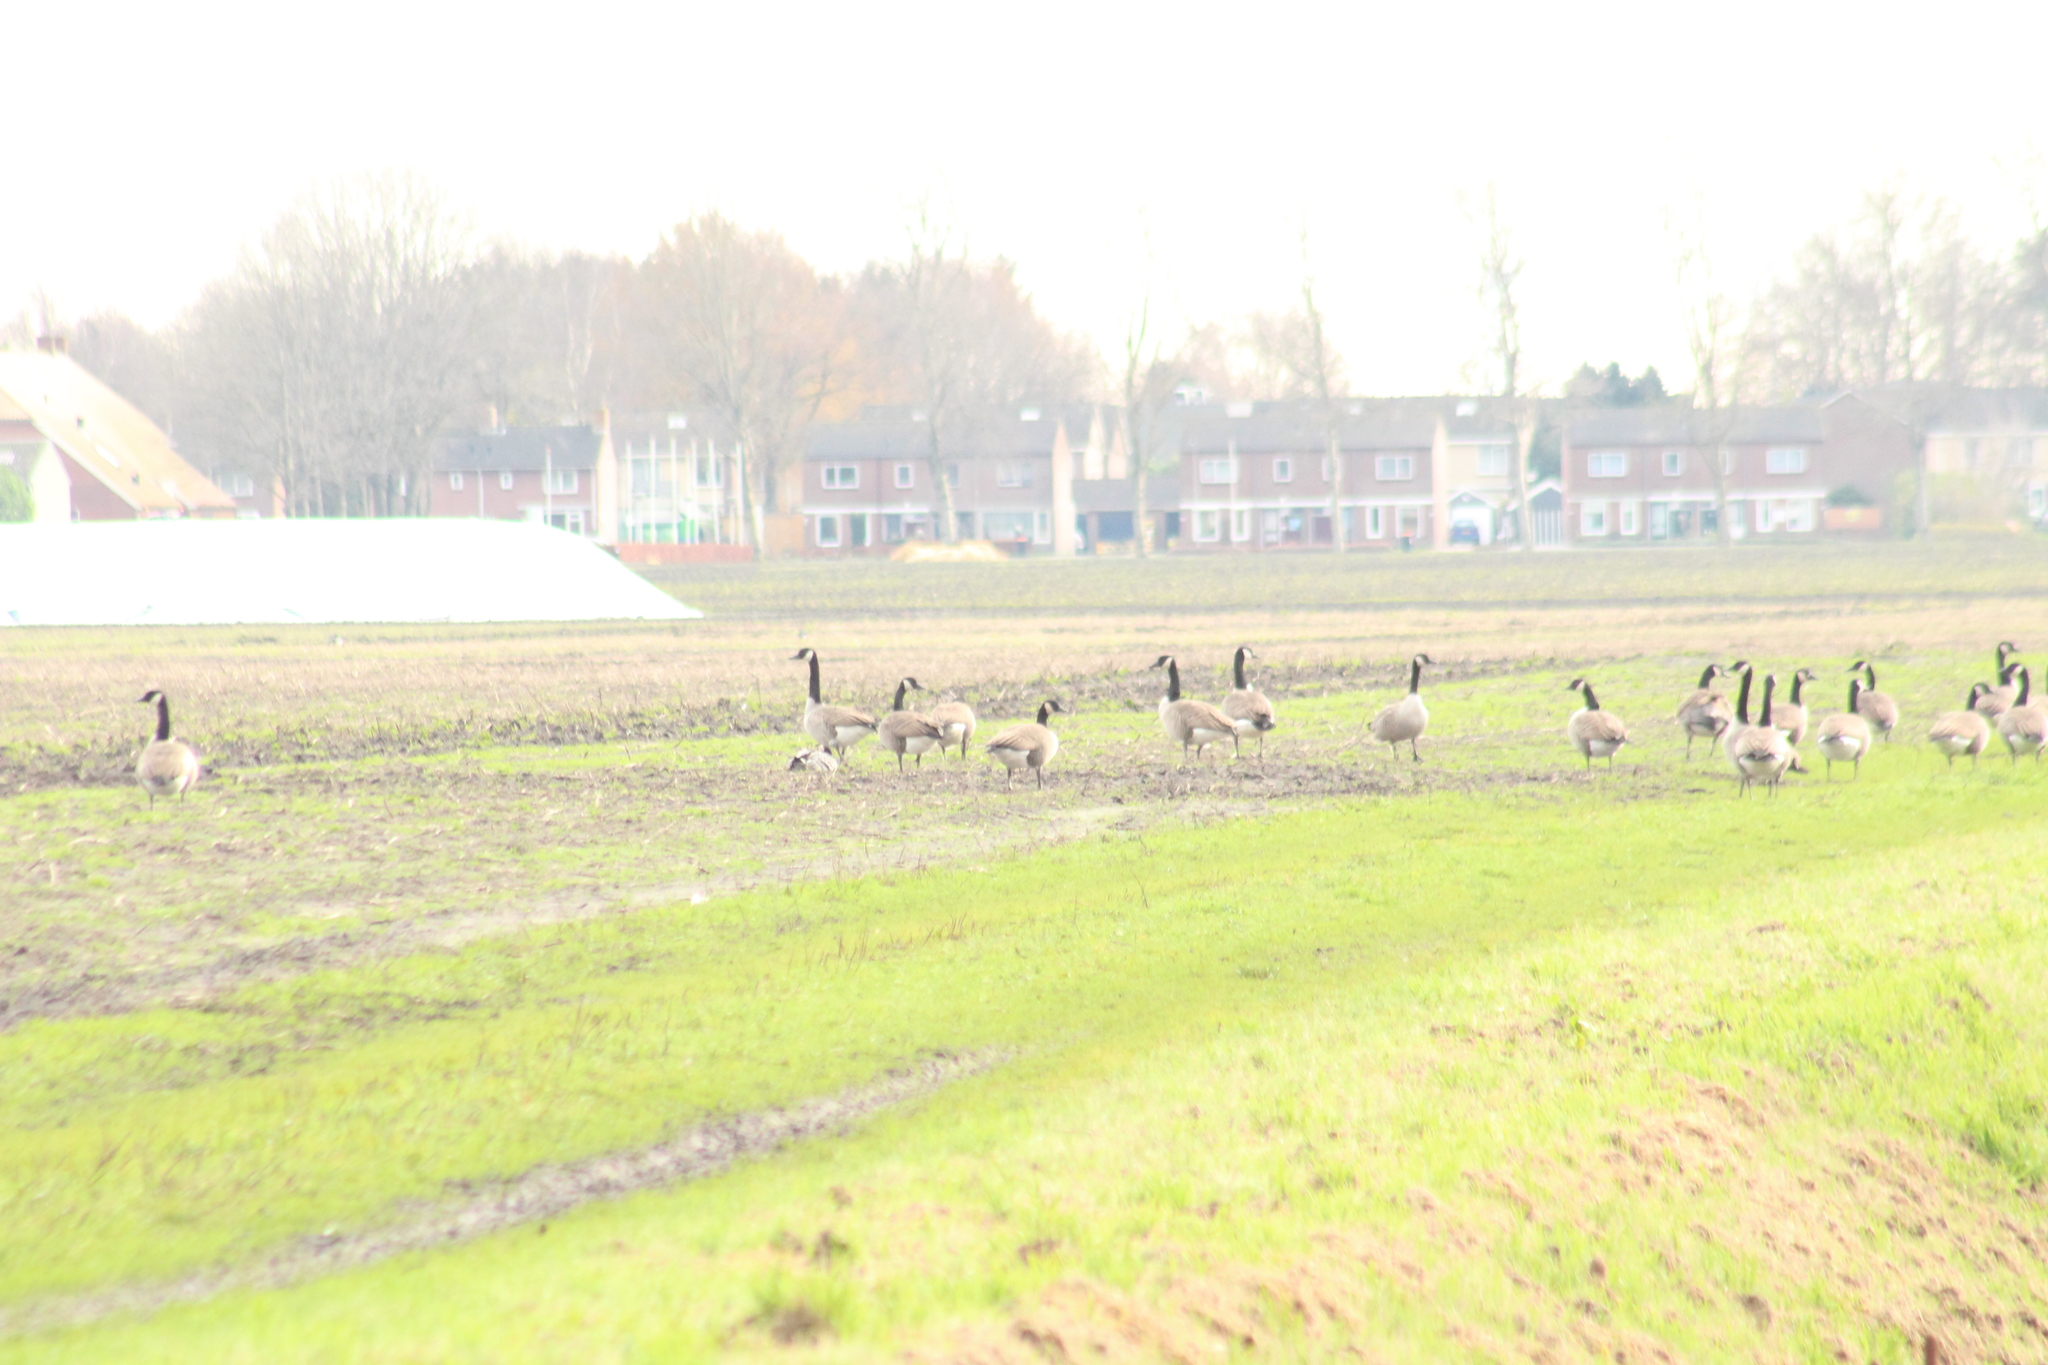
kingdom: Animalia
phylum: Chordata
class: Aves
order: Anseriformes
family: Anatidae
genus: Branta
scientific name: Branta canadensis
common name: Canada goose
